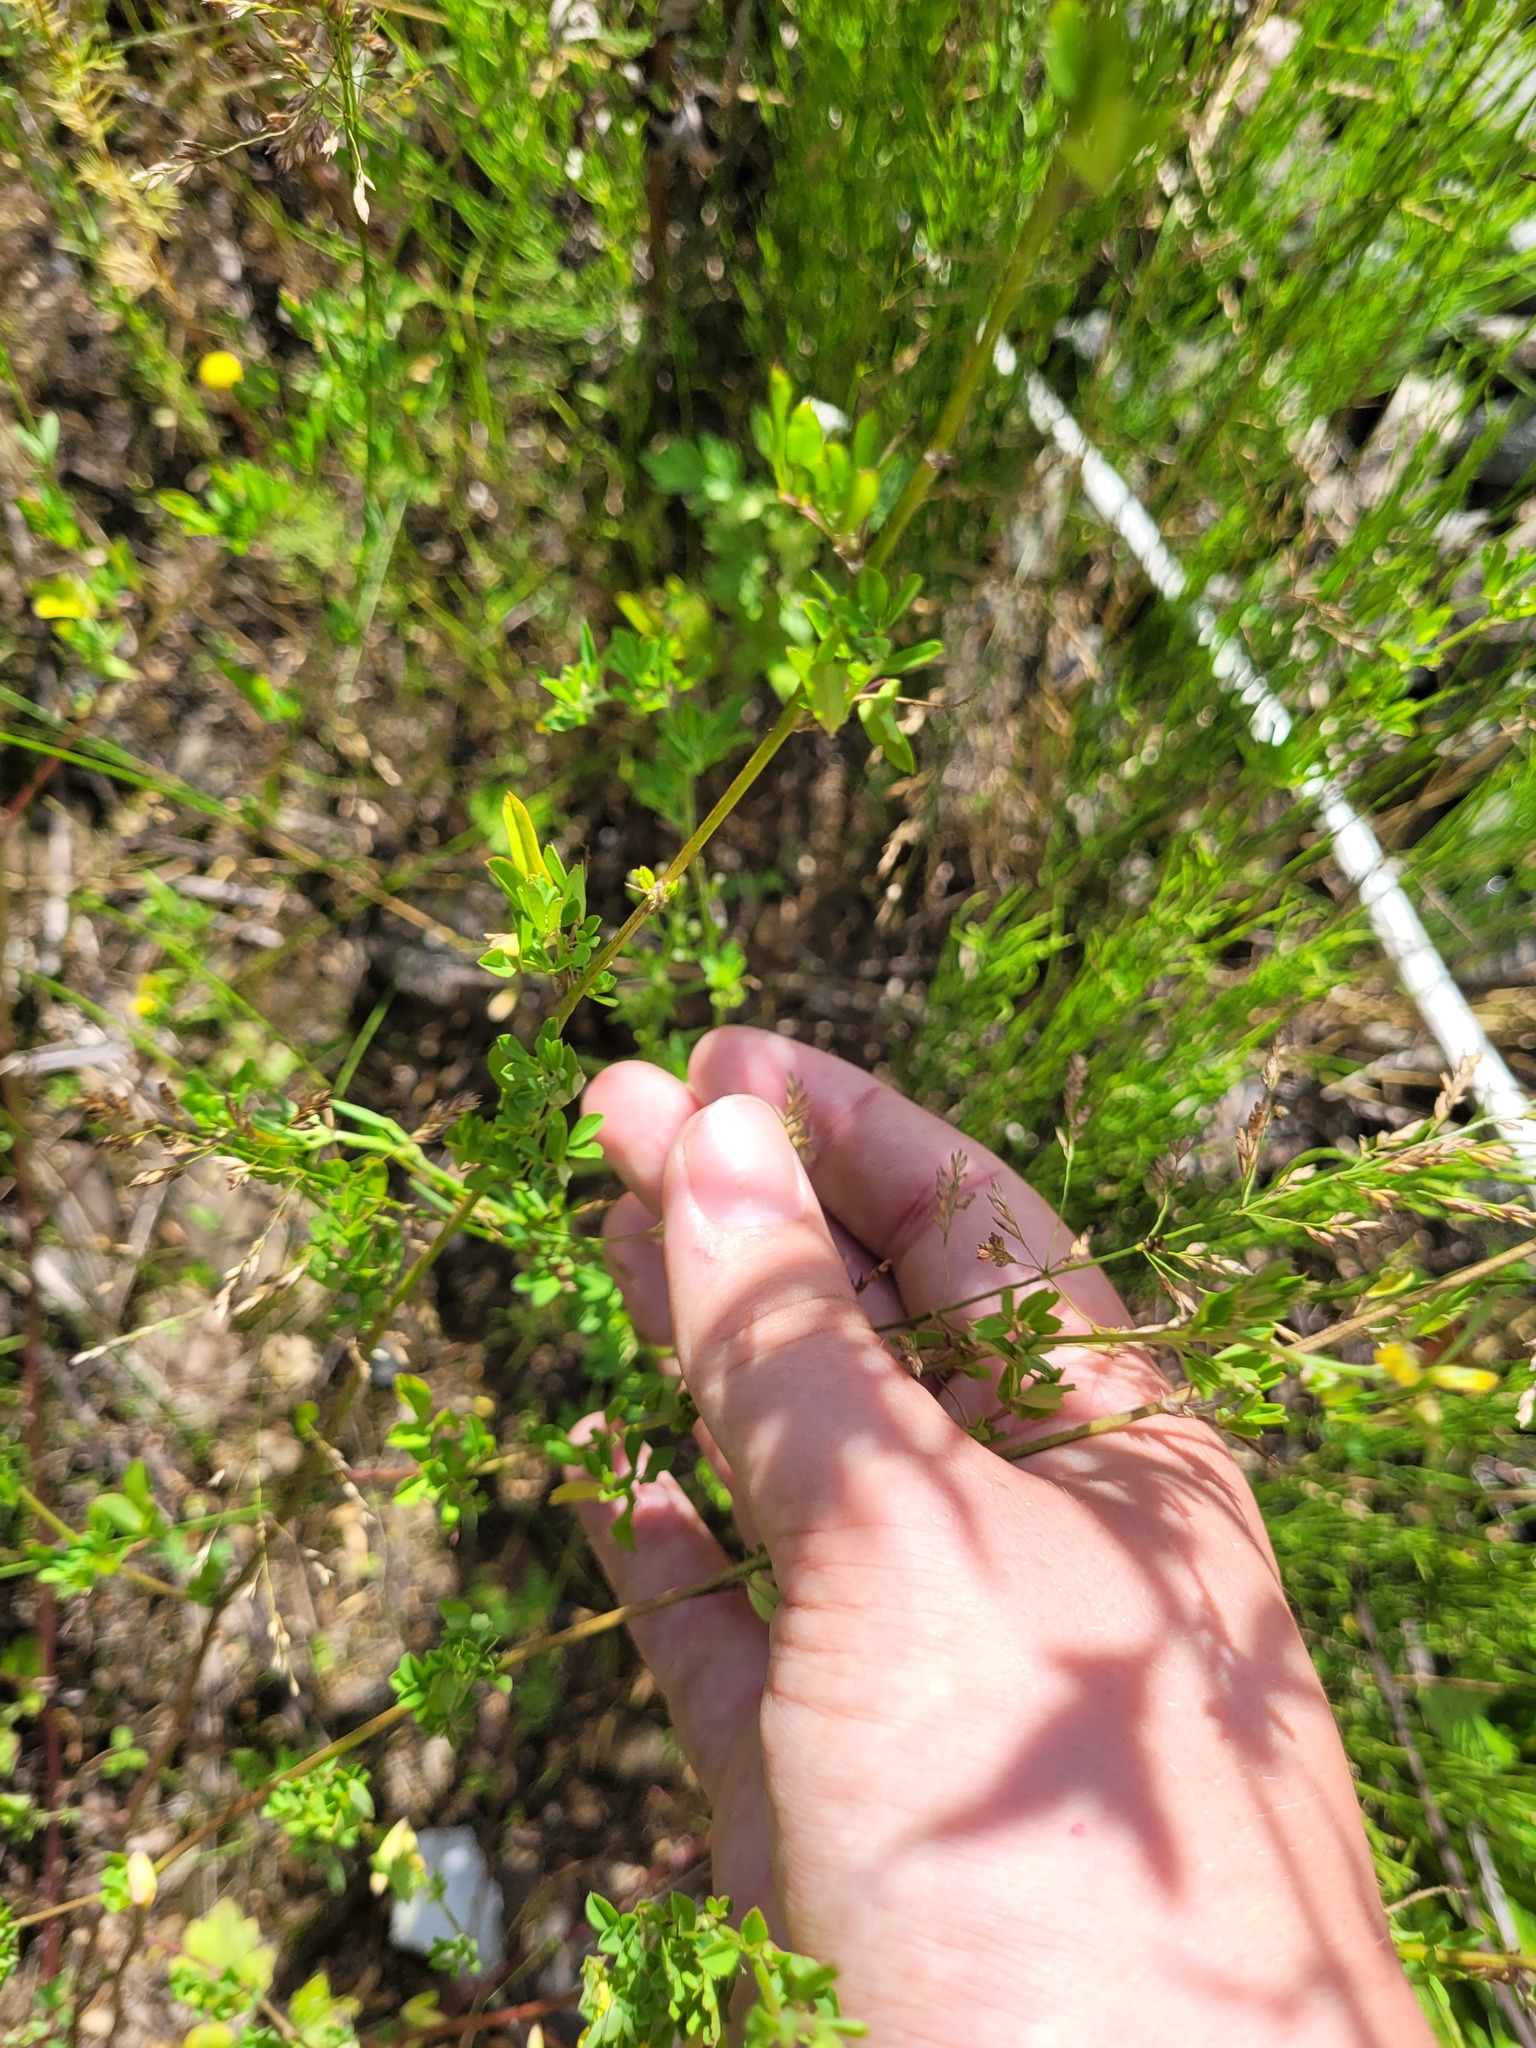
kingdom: Plantae
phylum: Tracheophyta
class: Magnoliopsida
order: Fabales
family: Fabaceae
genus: Medicago
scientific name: Medicago falcata
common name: Sickle medick
